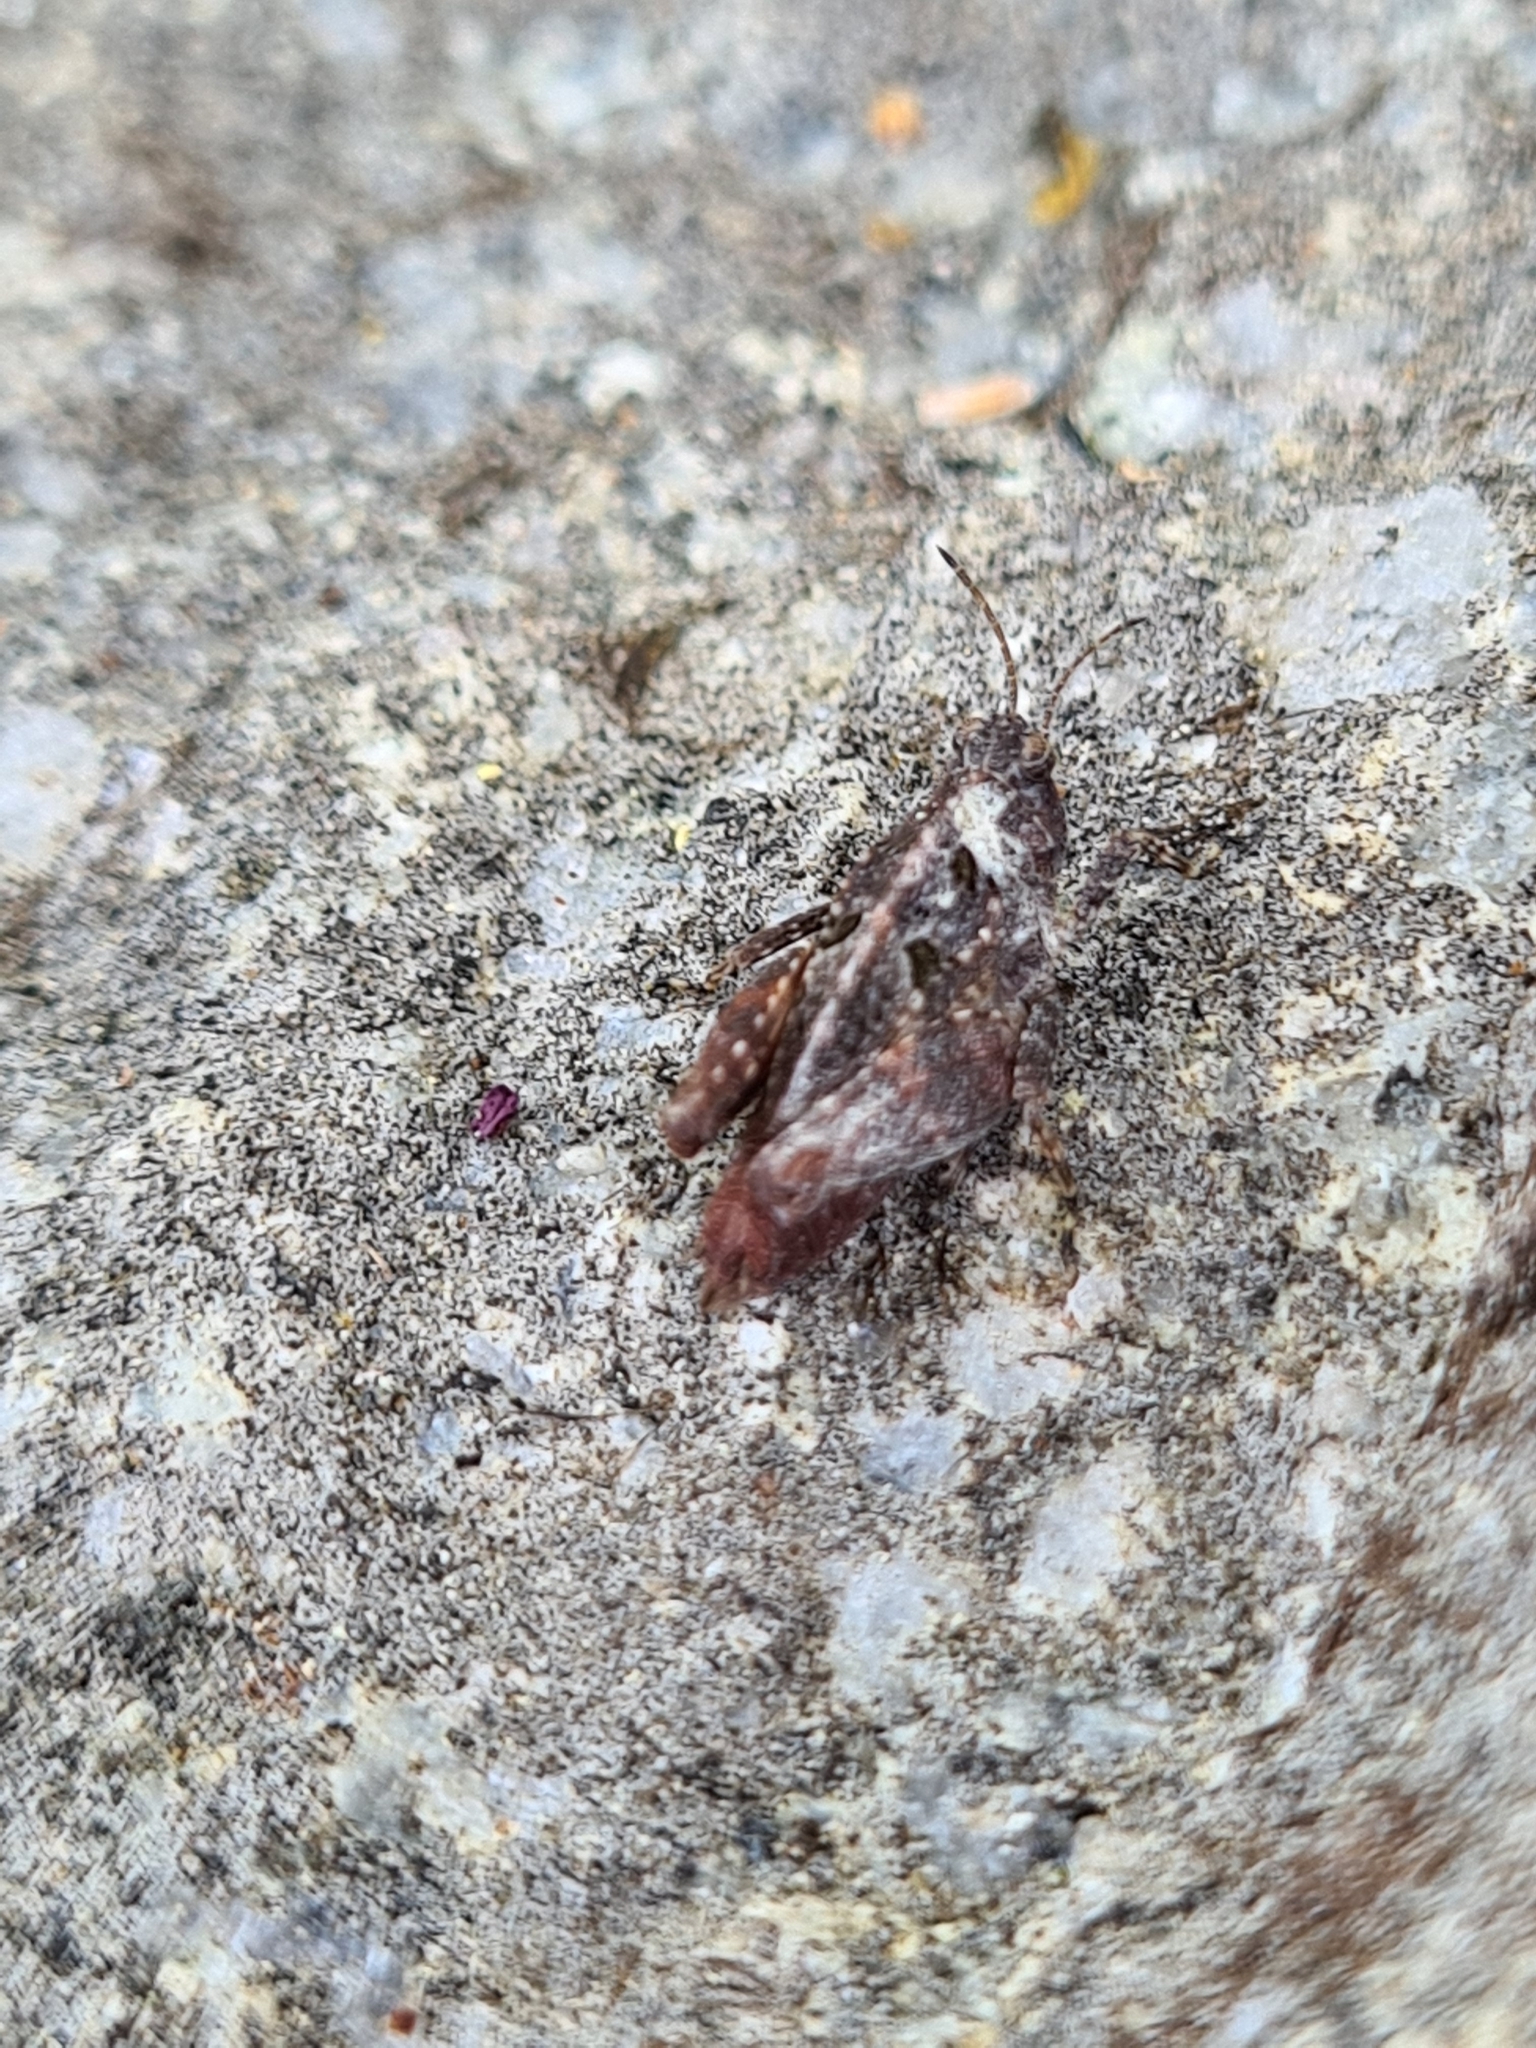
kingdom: Animalia
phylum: Arthropoda
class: Insecta
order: Orthoptera
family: Tetrigidae
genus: Tetrix
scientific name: Tetrix tenuicornis
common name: Long-horned groundhopper
